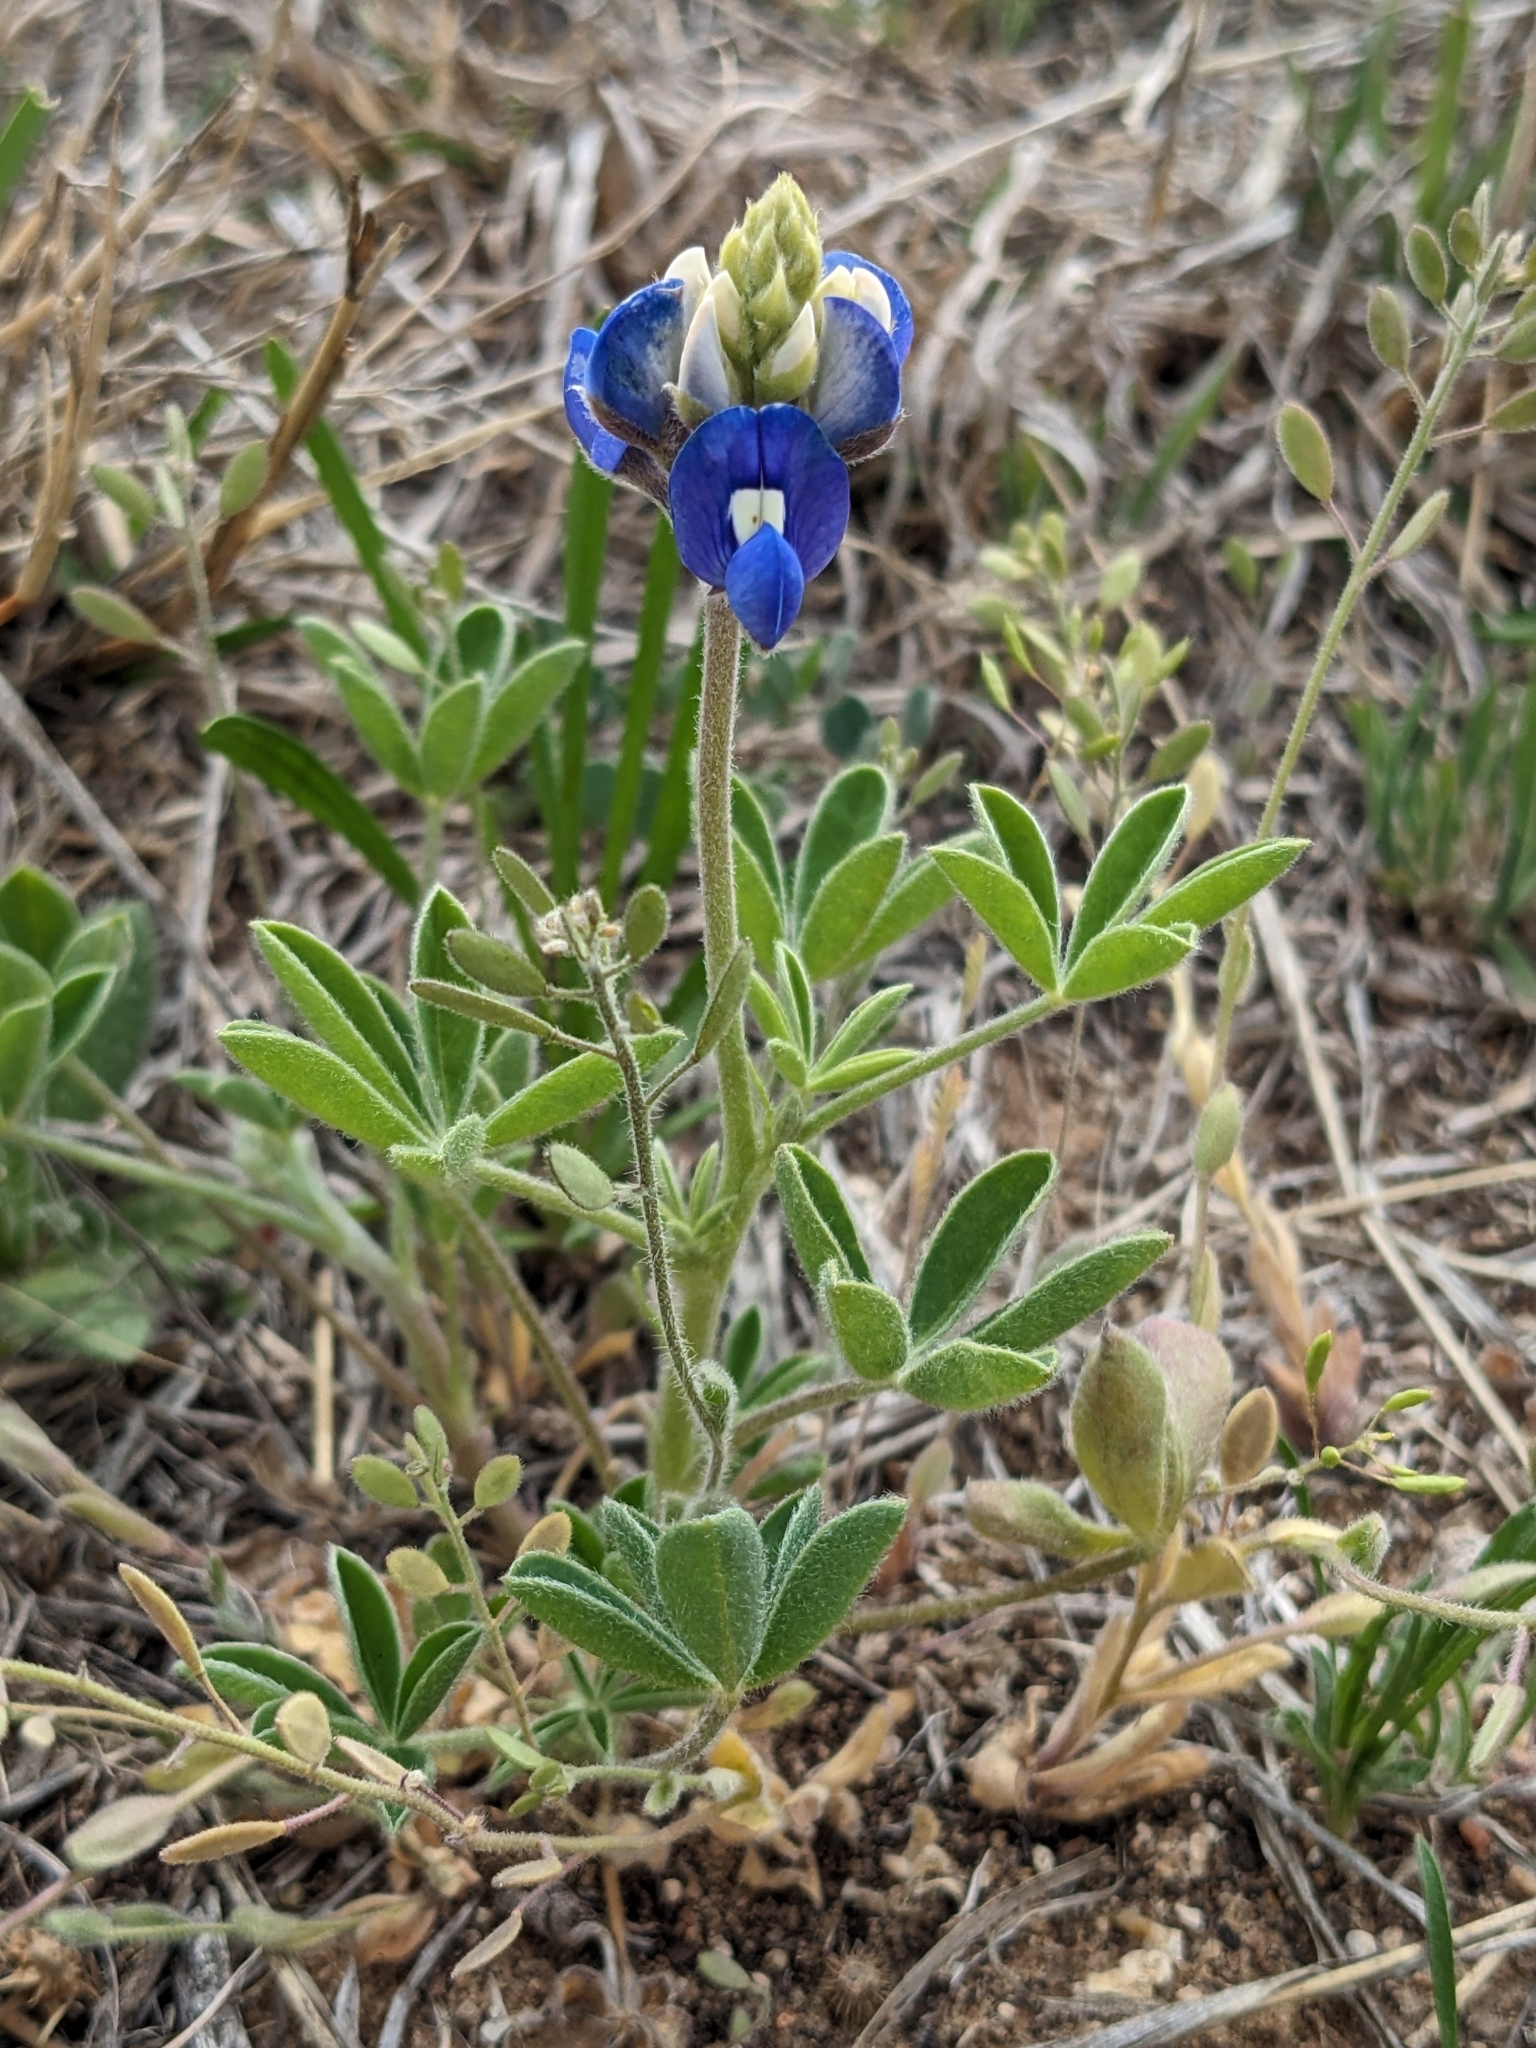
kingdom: Plantae
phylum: Tracheophyta
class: Magnoliopsida
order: Fabales
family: Fabaceae
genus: Lupinus
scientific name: Lupinus texensis
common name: Texas bluebonnet
